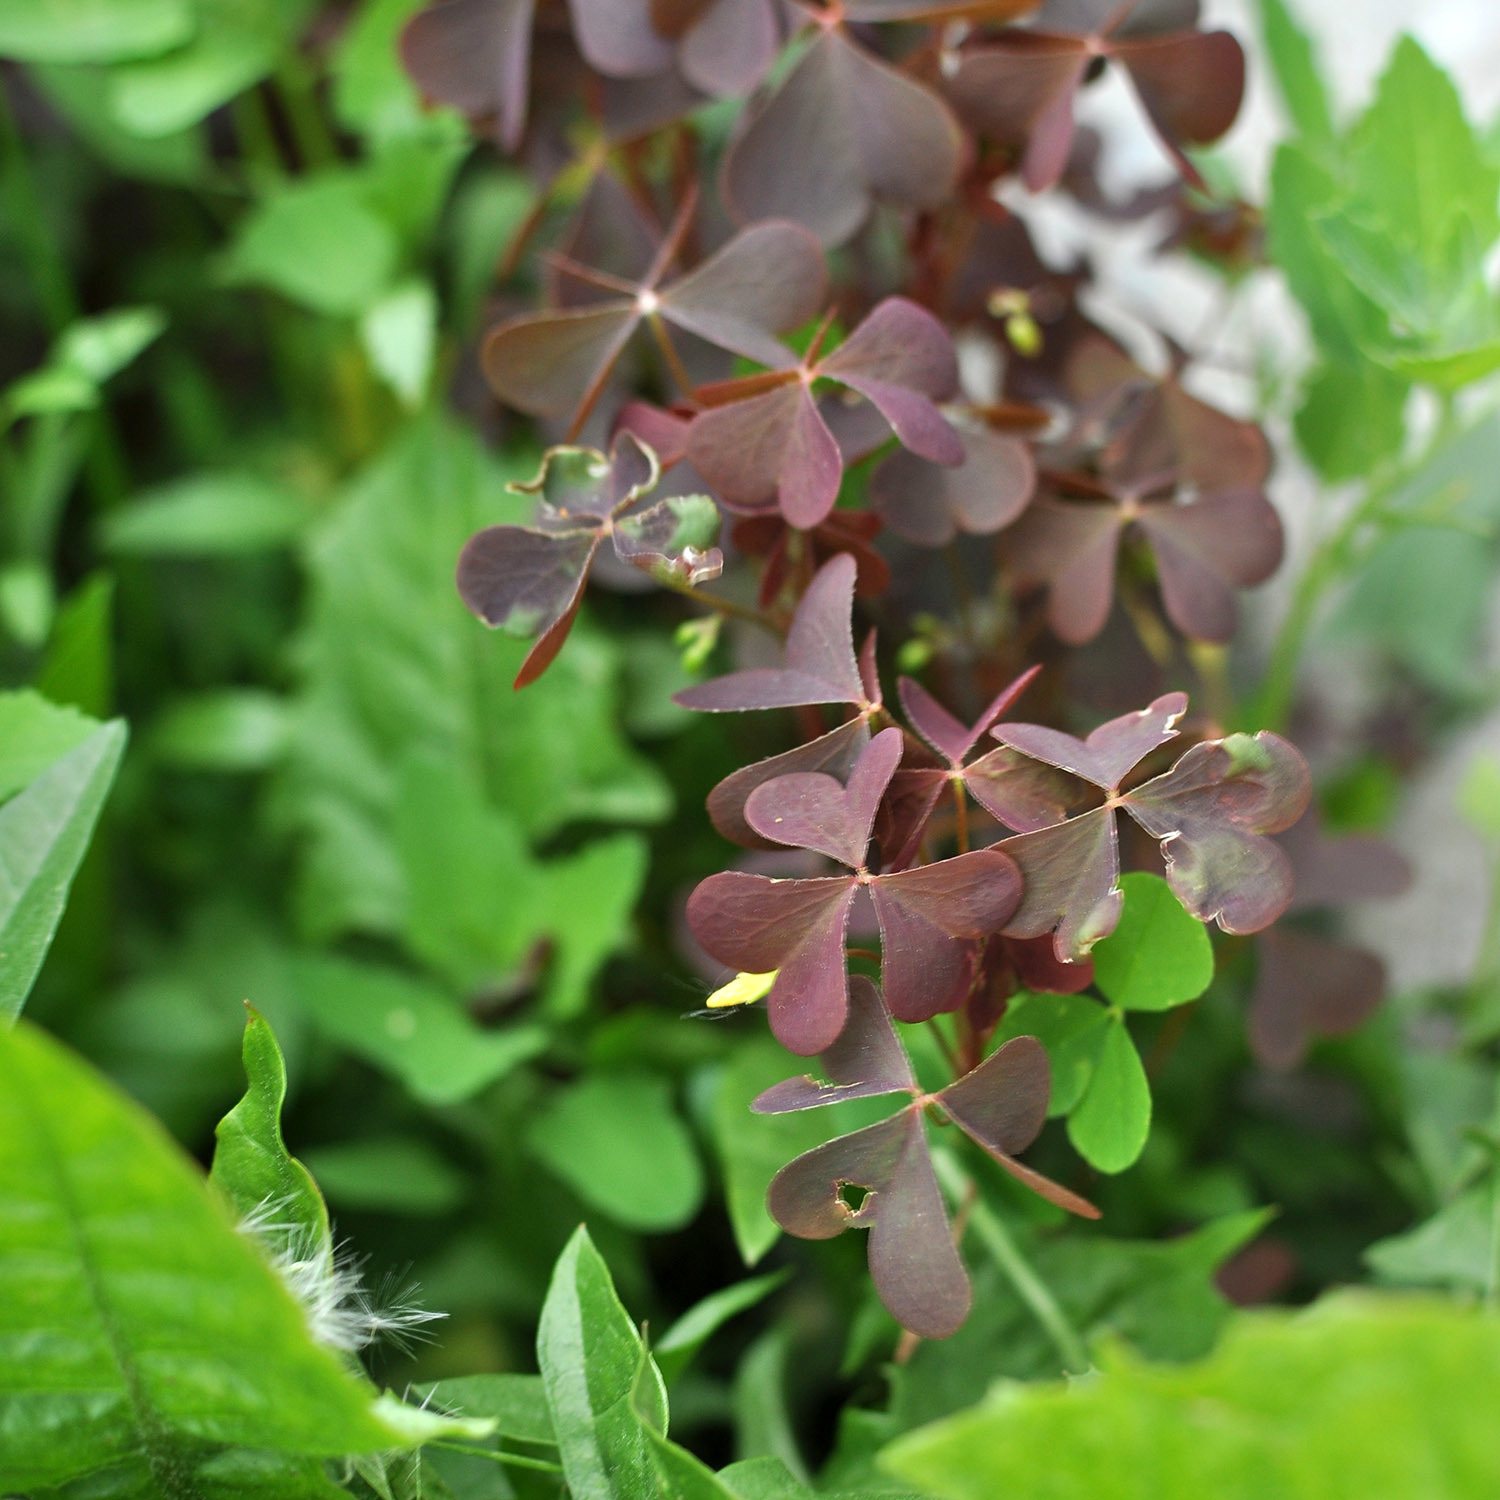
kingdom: Plantae
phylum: Tracheophyta
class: Magnoliopsida
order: Oxalidales
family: Oxalidaceae
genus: Oxalis
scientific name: Oxalis stricta
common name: Upright yellow-sorrel
